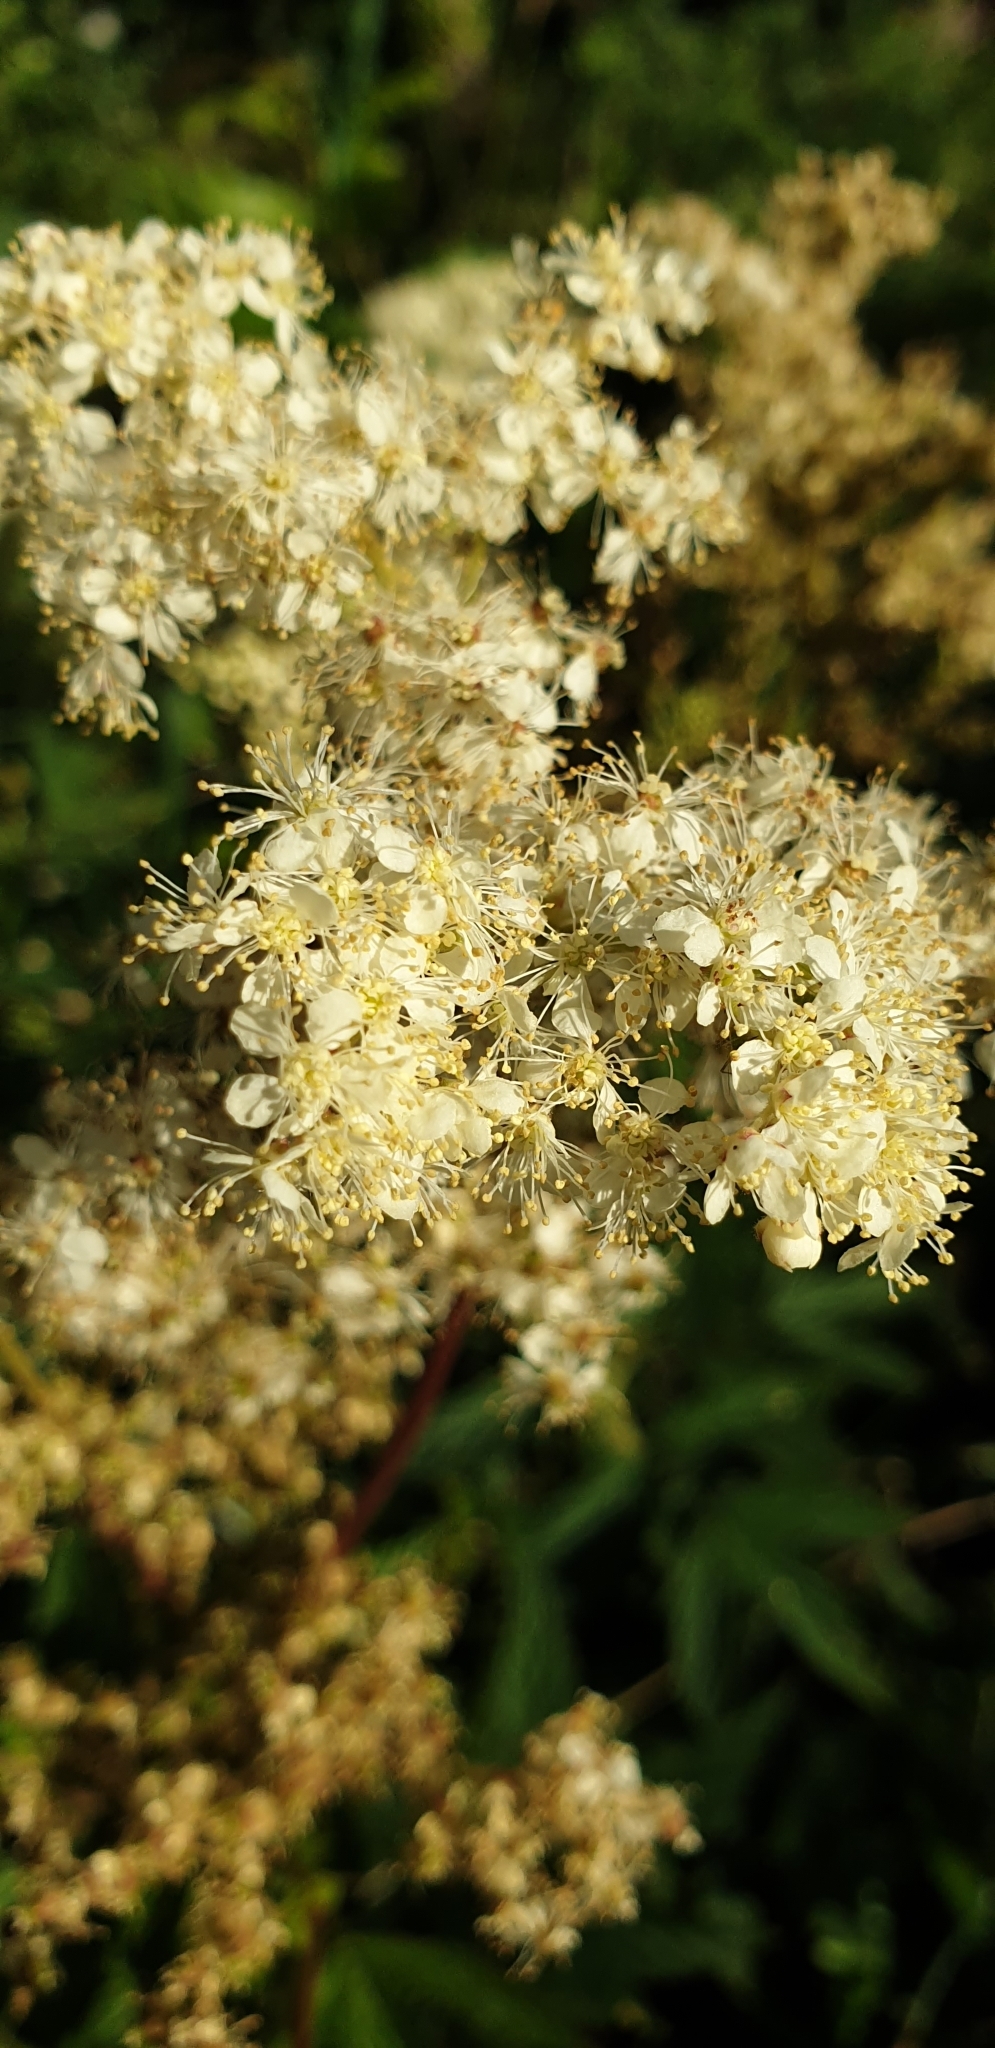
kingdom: Plantae
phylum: Tracheophyta
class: Magnoliopsida
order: Rosales
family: Rosaceae
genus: Filipendula
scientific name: Filipendula ulmaria
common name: Meadowsweet
